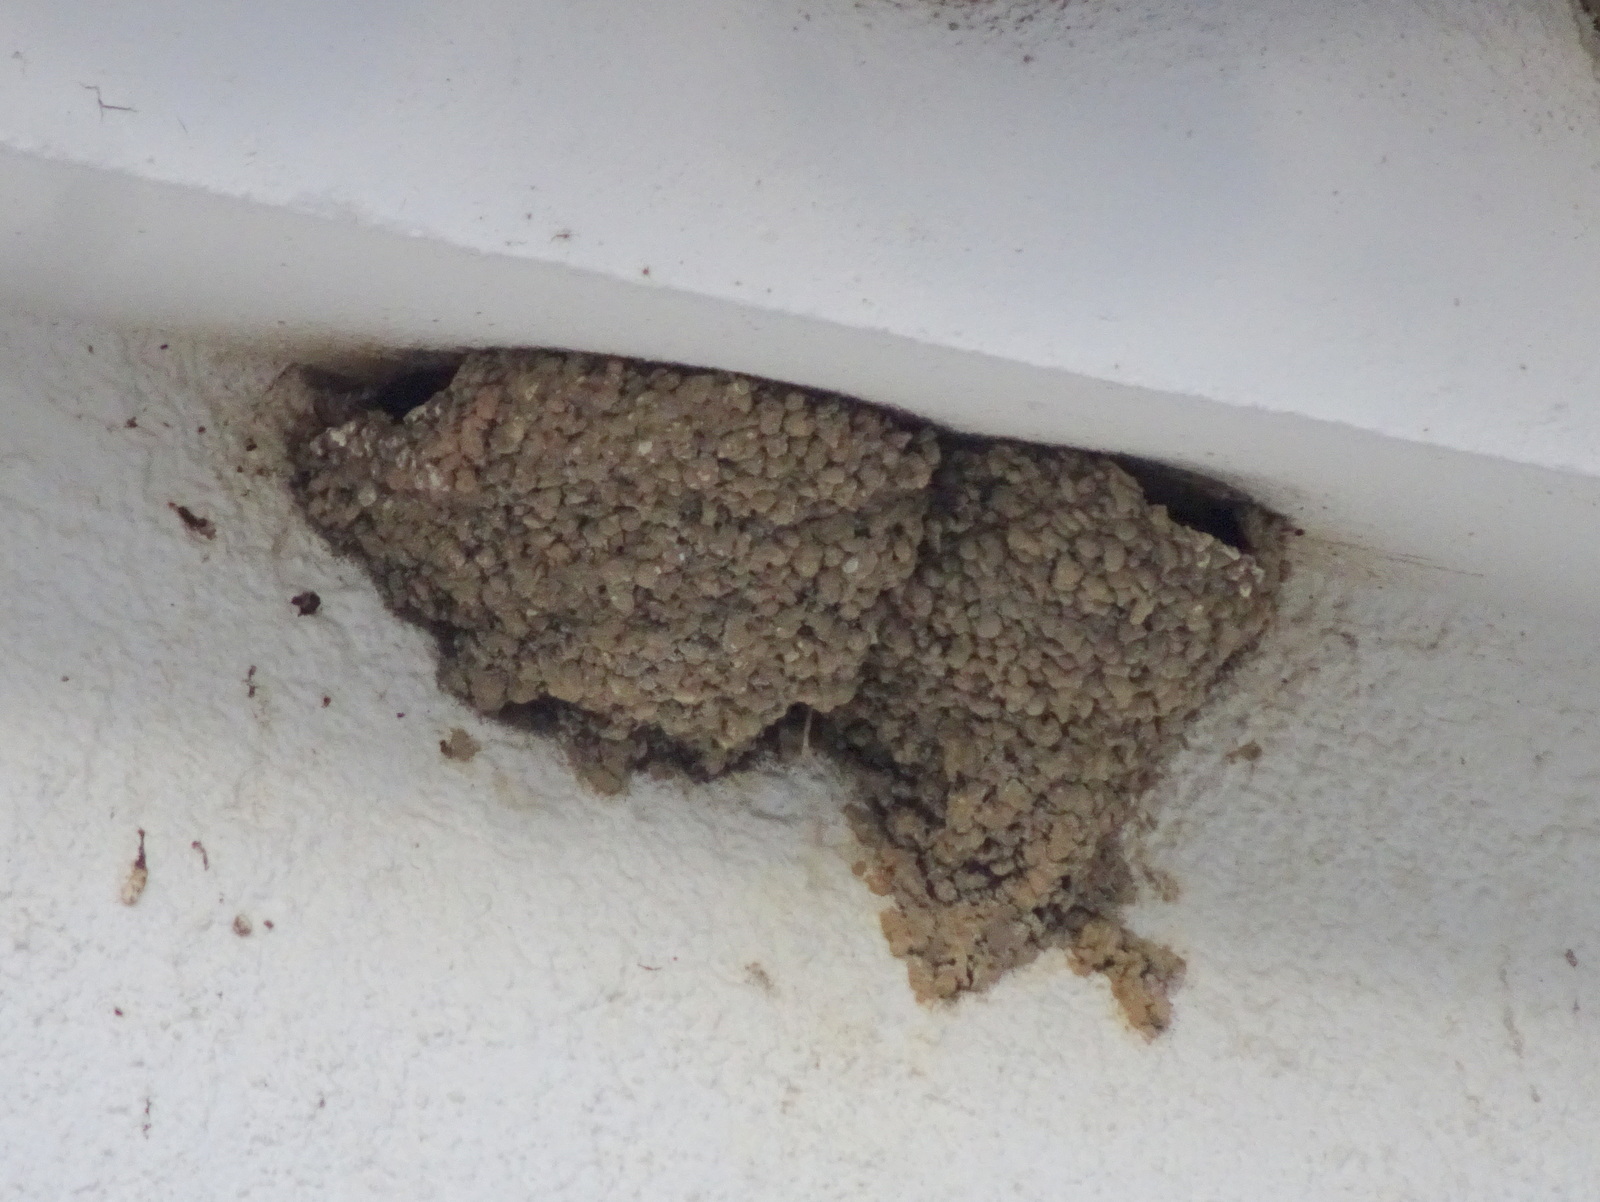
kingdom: Animalia
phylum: Chordata
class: Aves
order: Passeriformes
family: Hirundinidae
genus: Delichon
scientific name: Delichon urbicum
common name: Common house martin
